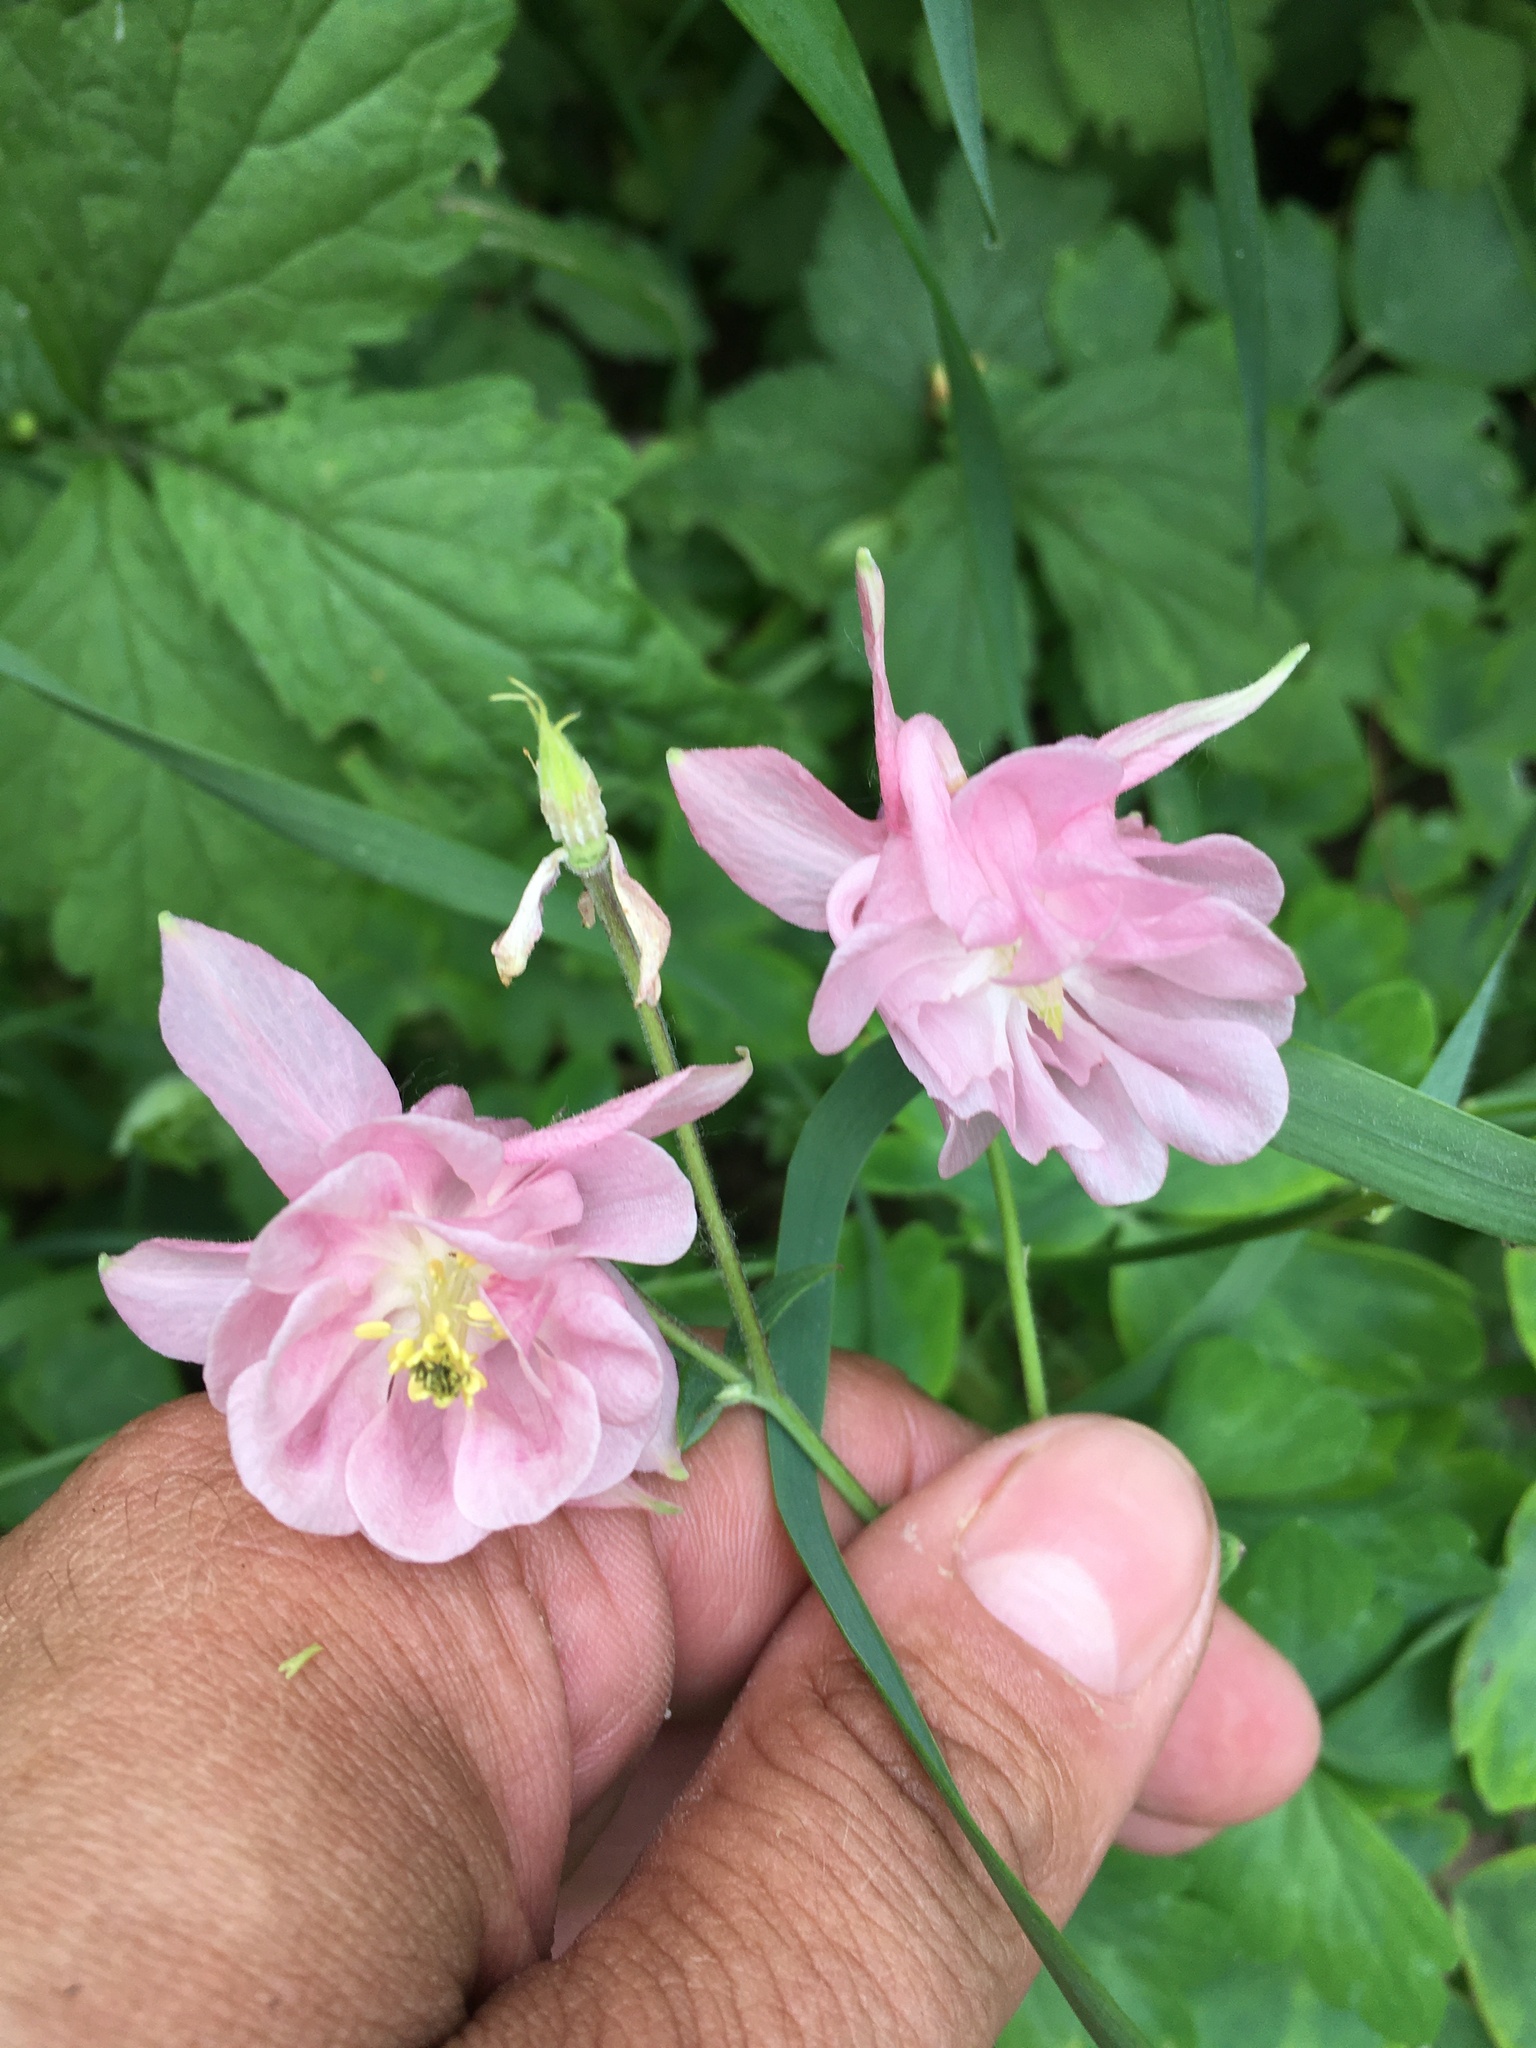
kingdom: Plantae
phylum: Tracheophyta
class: Magnoliopsida
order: Ranunculales
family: Ranunculaceae
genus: Aquilegia
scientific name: Aquilegia vulgaris
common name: Columbine
